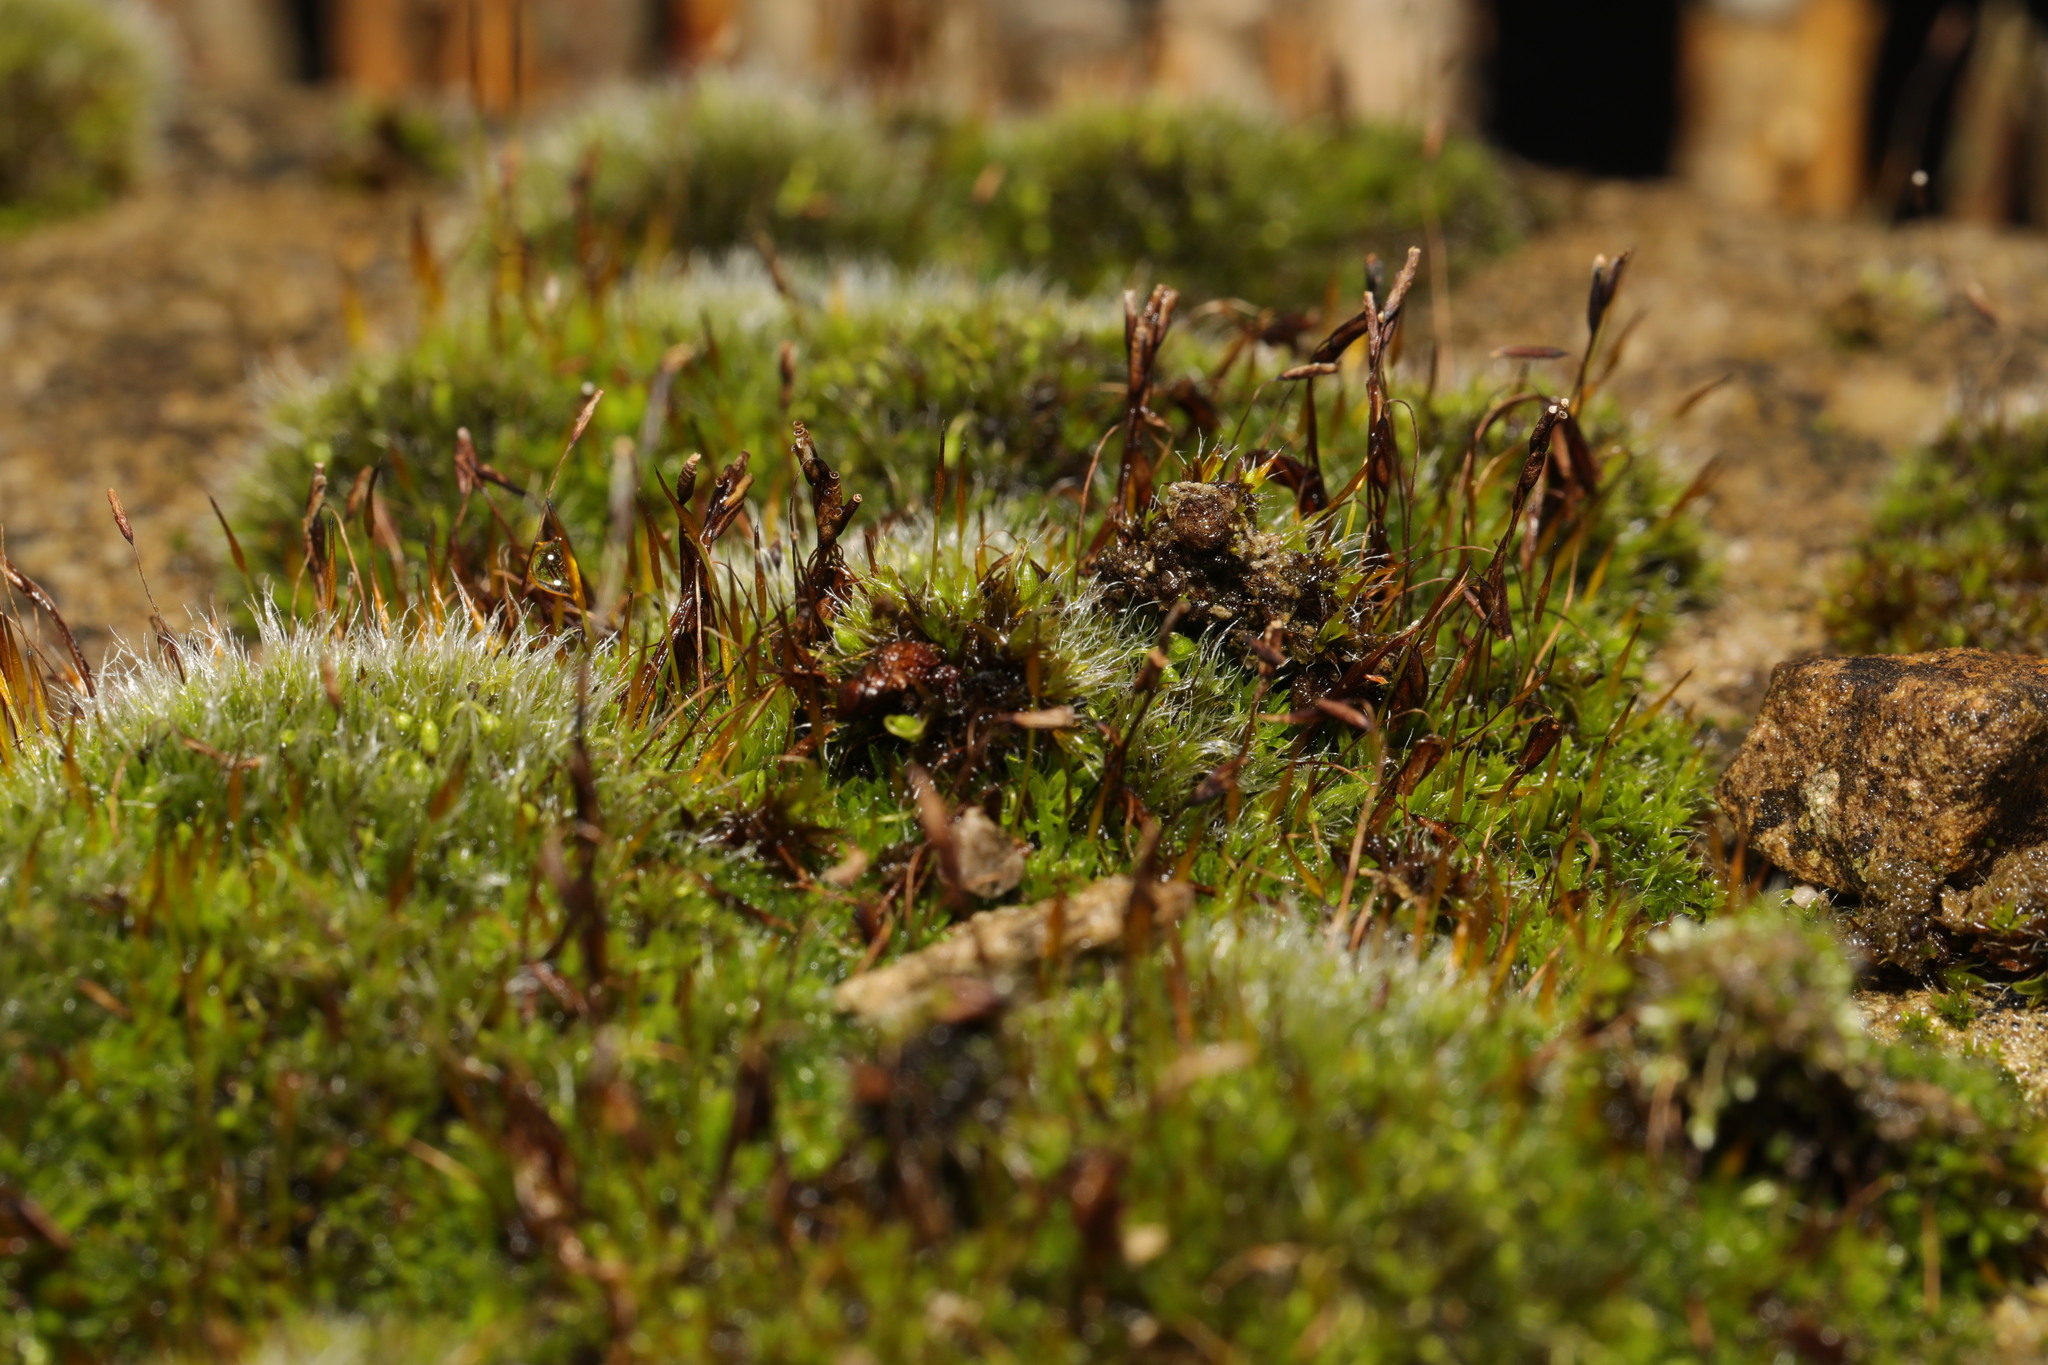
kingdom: Plantae
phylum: Bryophyta
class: Bryopsida
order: Pottiales
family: Pottiaceae
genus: Tortula
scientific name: Tortula muralis
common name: Wall screw-moss
